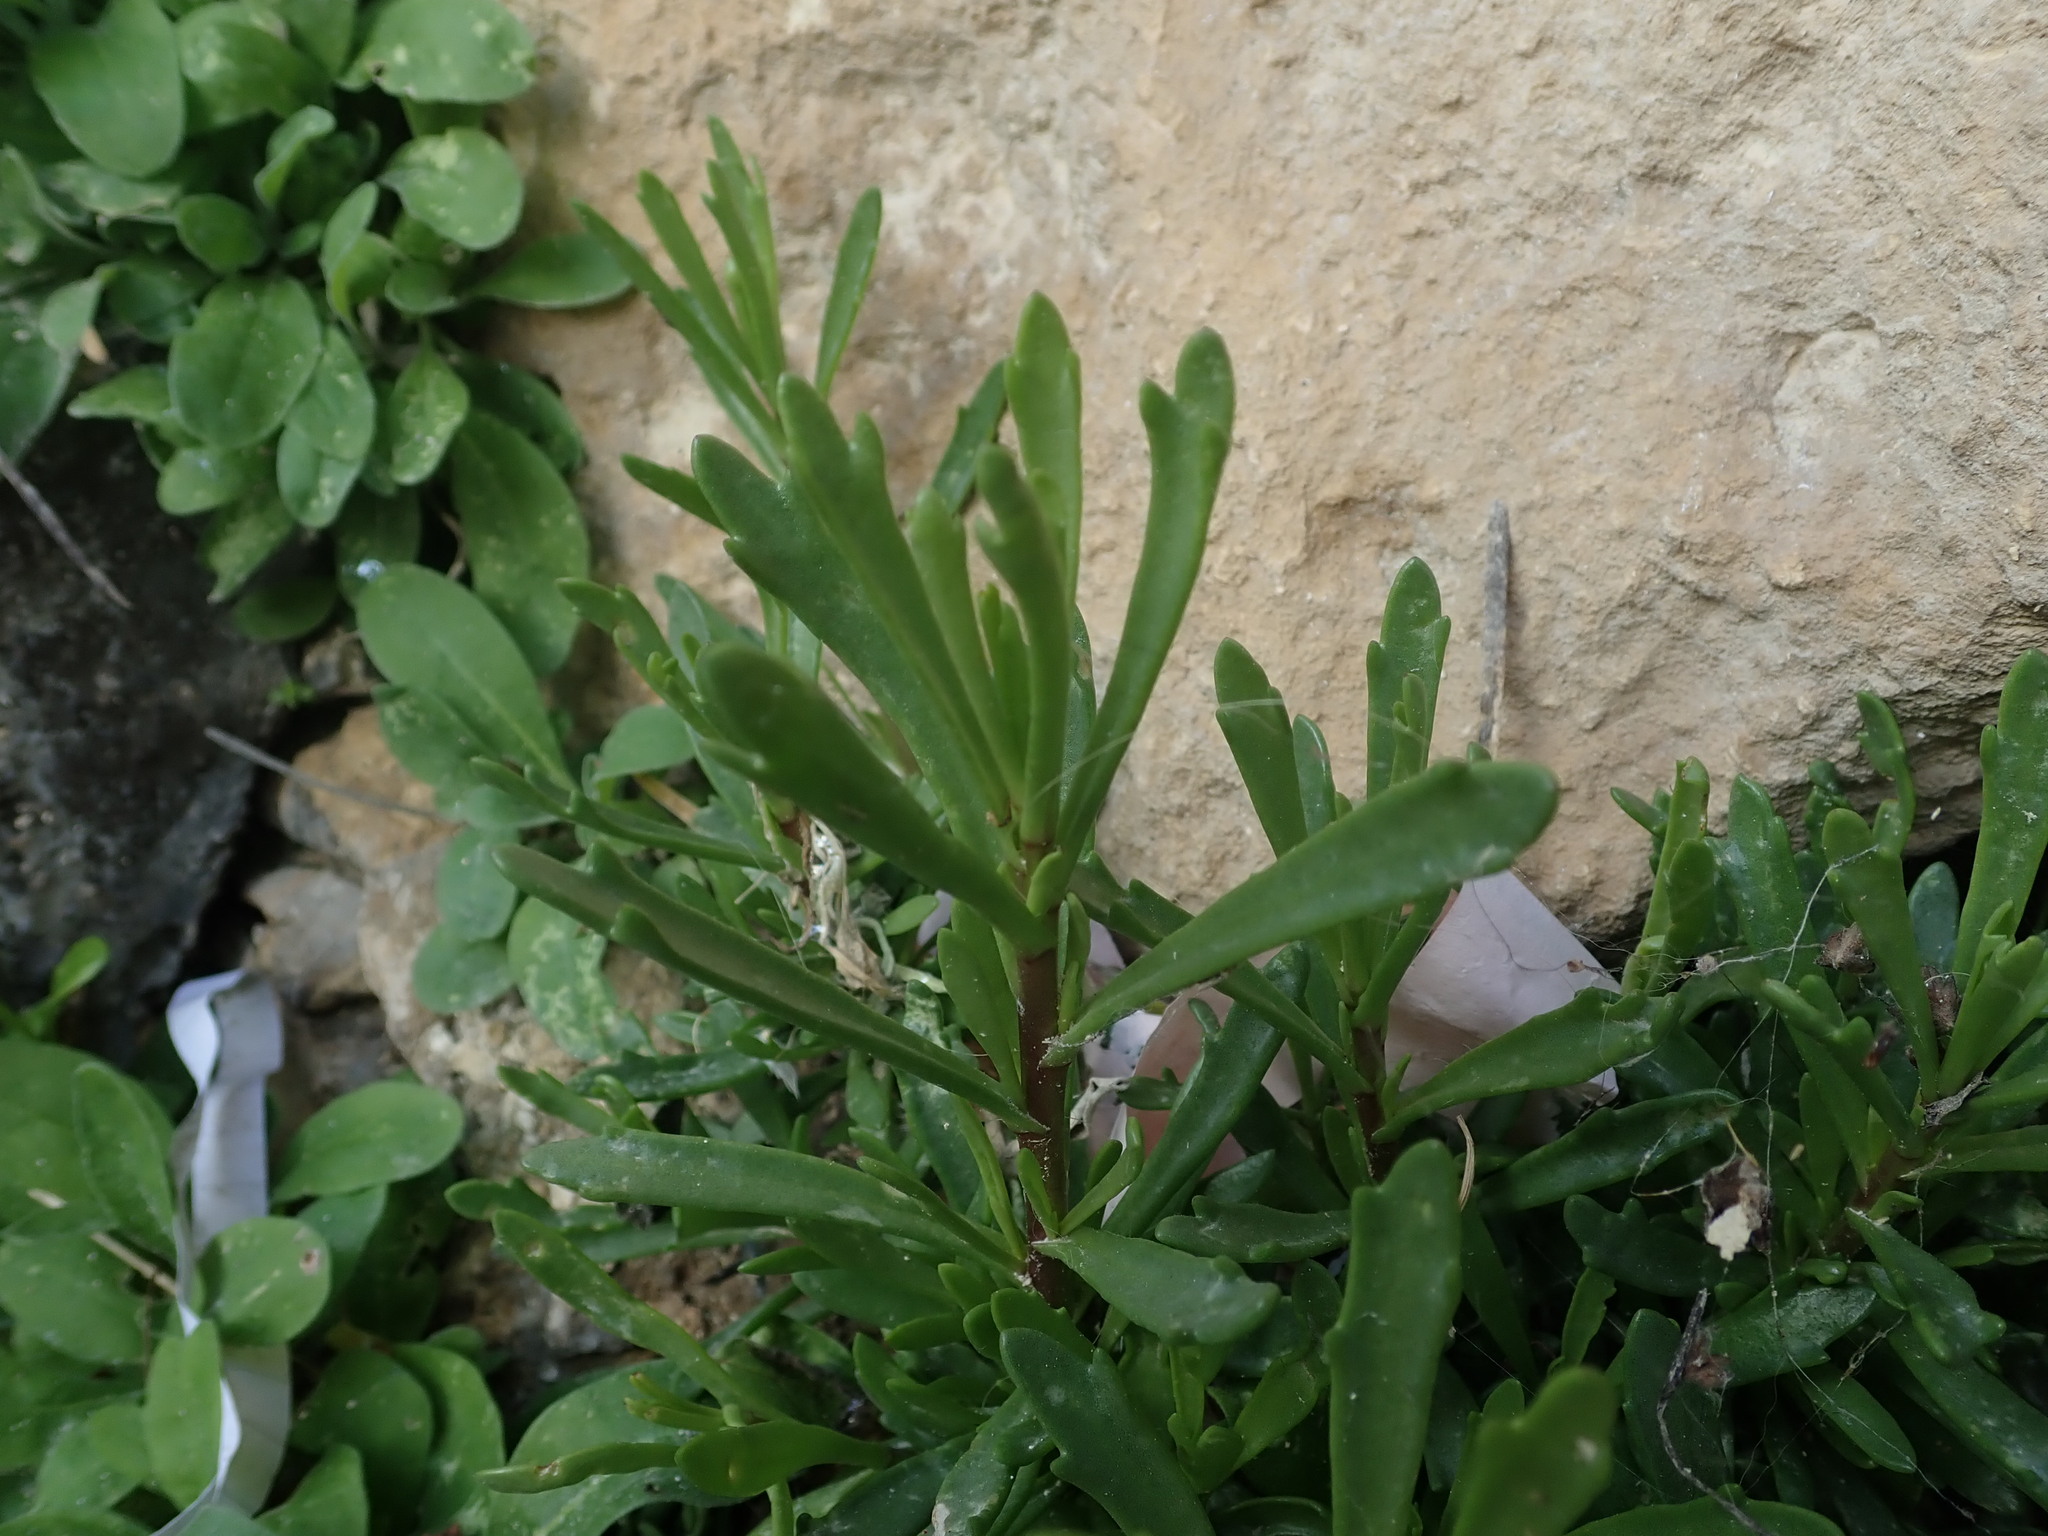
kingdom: Plantae
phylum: Tracheophyta
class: Magnoliopsida
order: Asterales
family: Asteraceae
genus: Limbarda
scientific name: Limbarda crithmoides
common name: Golden samphire
